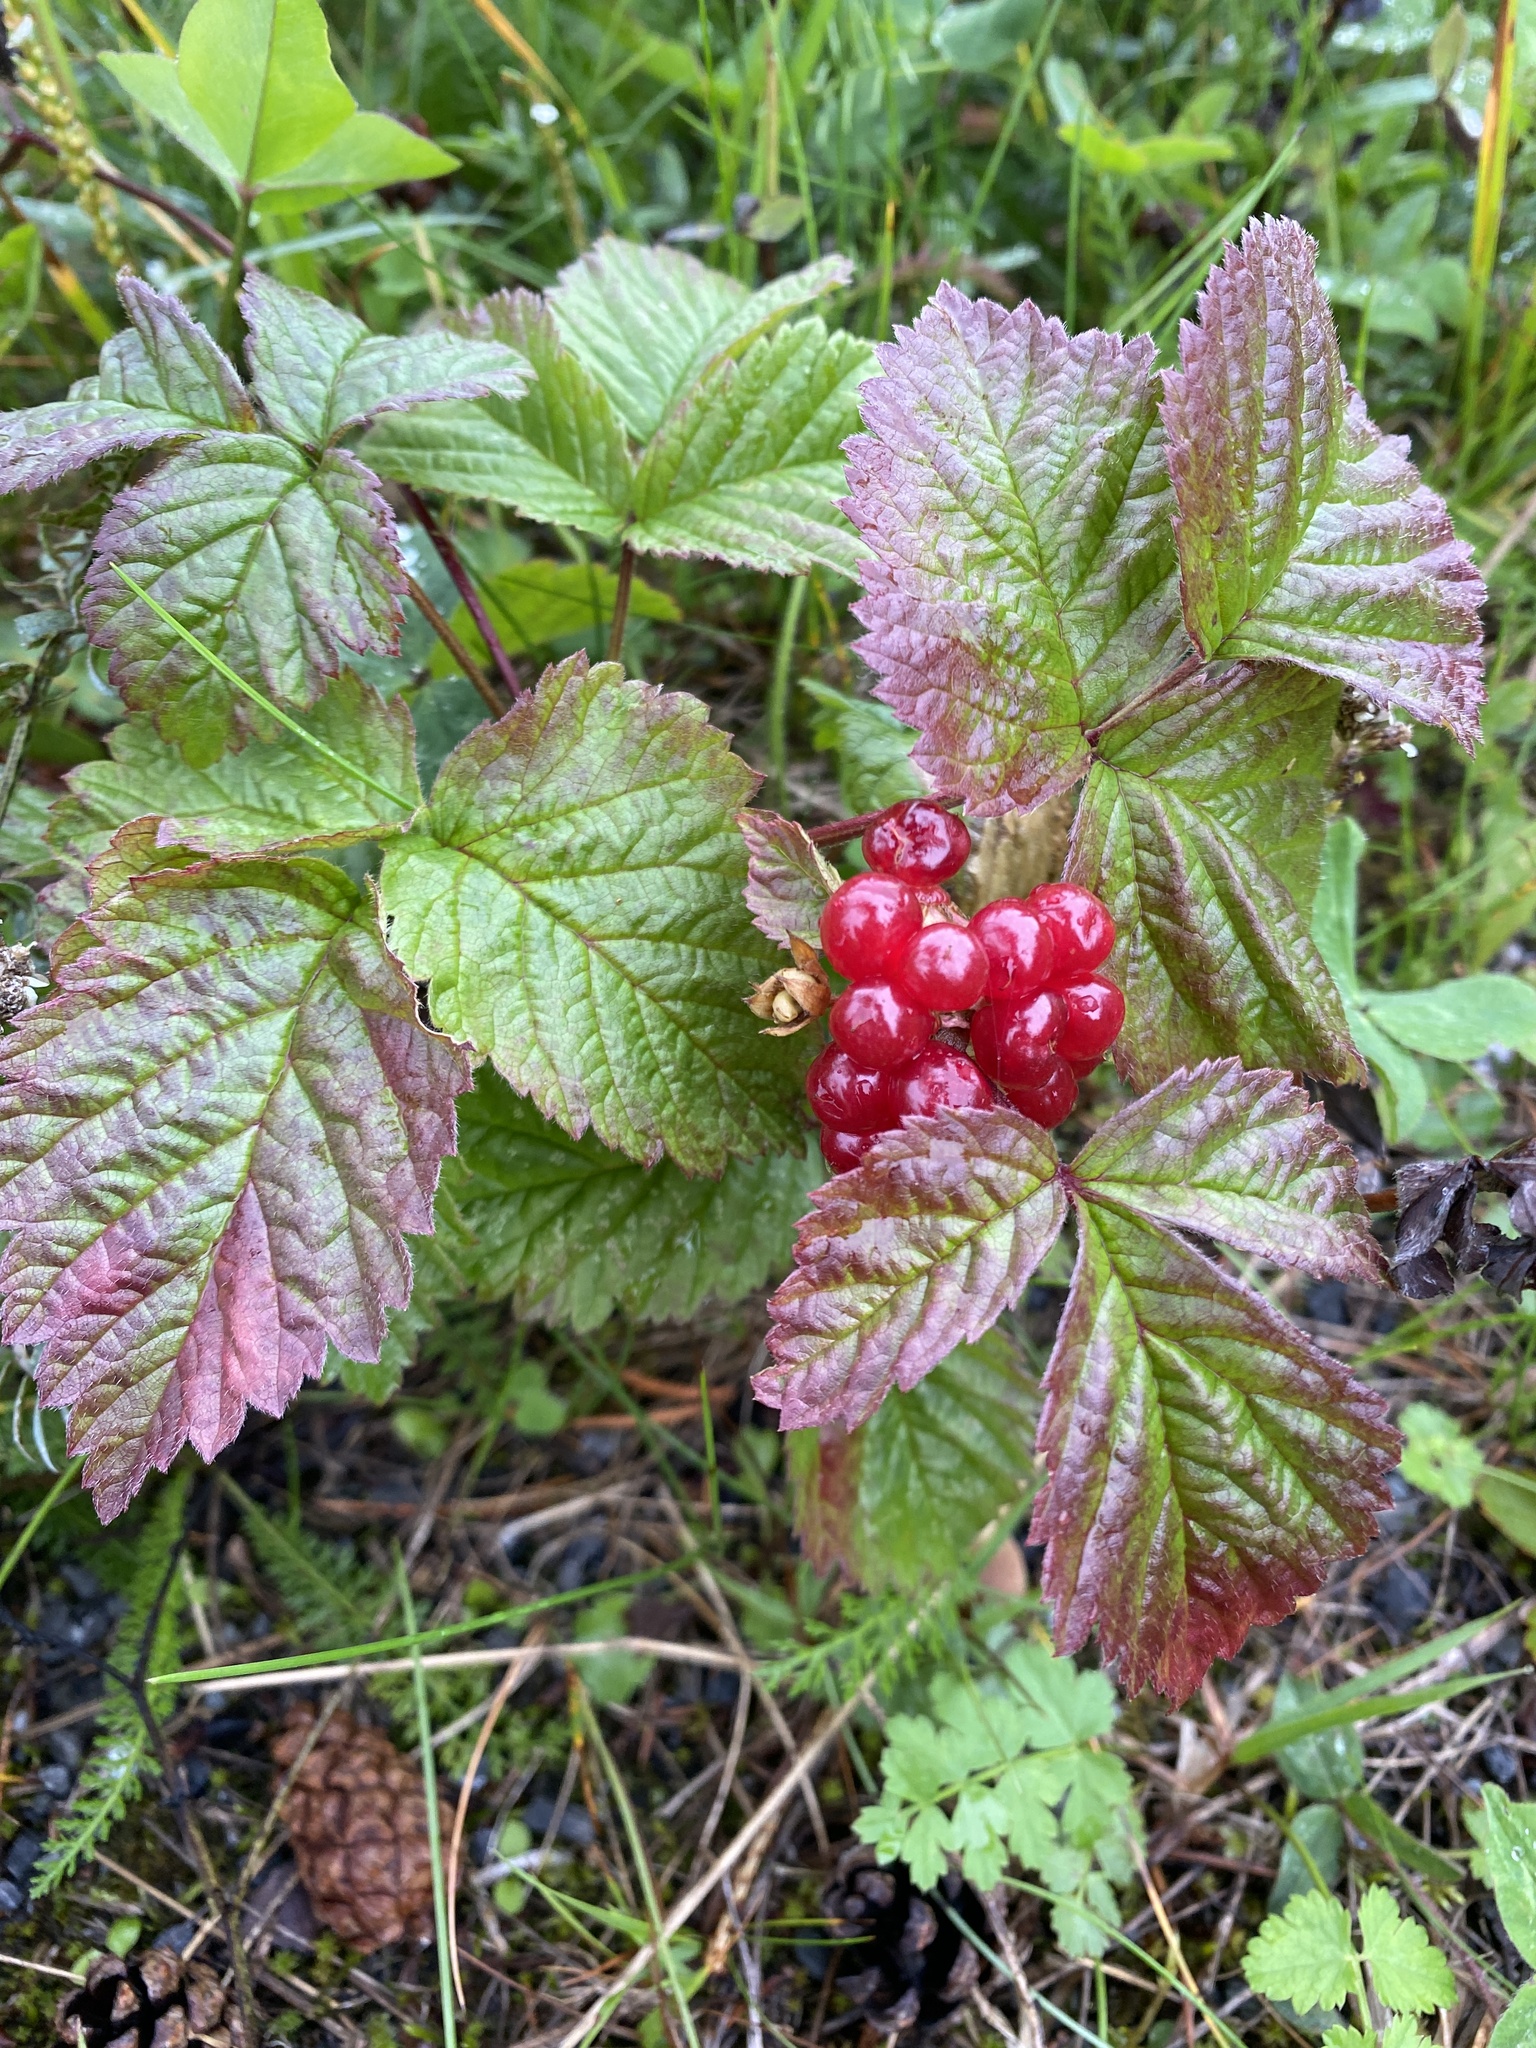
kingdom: Plantae
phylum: Tracheophyta
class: Magnoliopsida
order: Rosales
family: Rosaceae
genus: Rubus
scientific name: Rubus saxatilis
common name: Stone bramble
